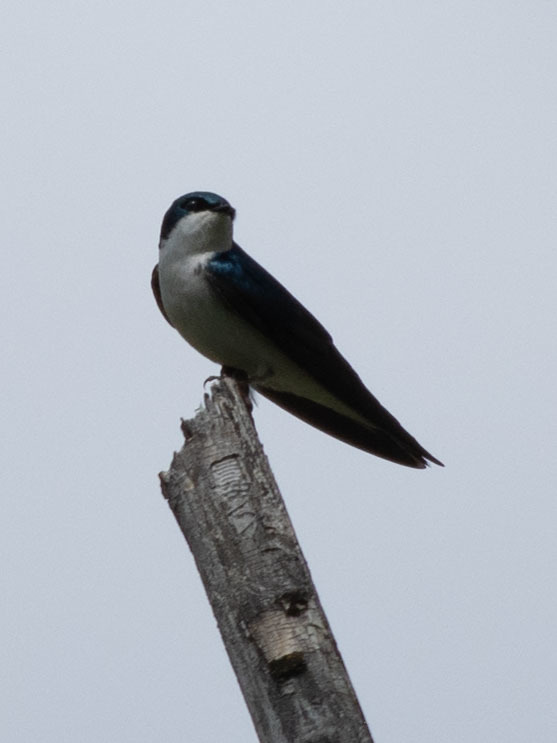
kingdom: Animalia
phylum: Chordata
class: Aves
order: Passeriformes
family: Hirundinidae
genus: Tachycineta
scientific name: Tachycineta bicolor
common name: Tree swallow
